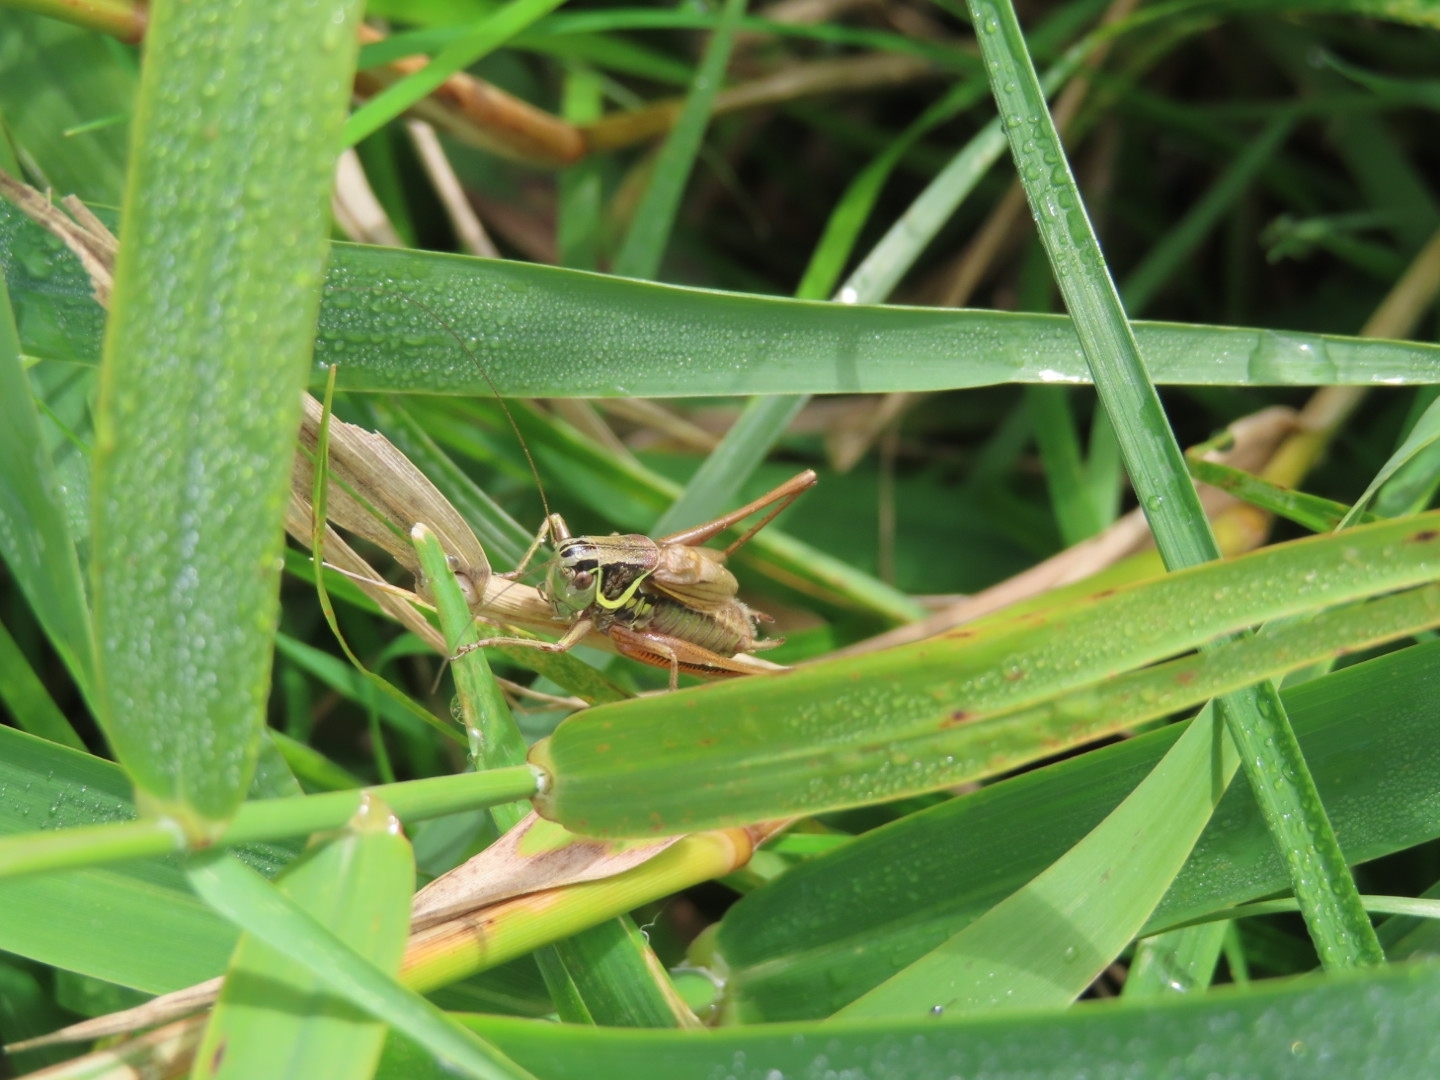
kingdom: Animalia
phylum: Arthropoda
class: Insecta
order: Orthoptera
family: Tettigoniidae
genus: Roeseliana
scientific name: Roeseliana roeselii
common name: Roesel's bush cricket
